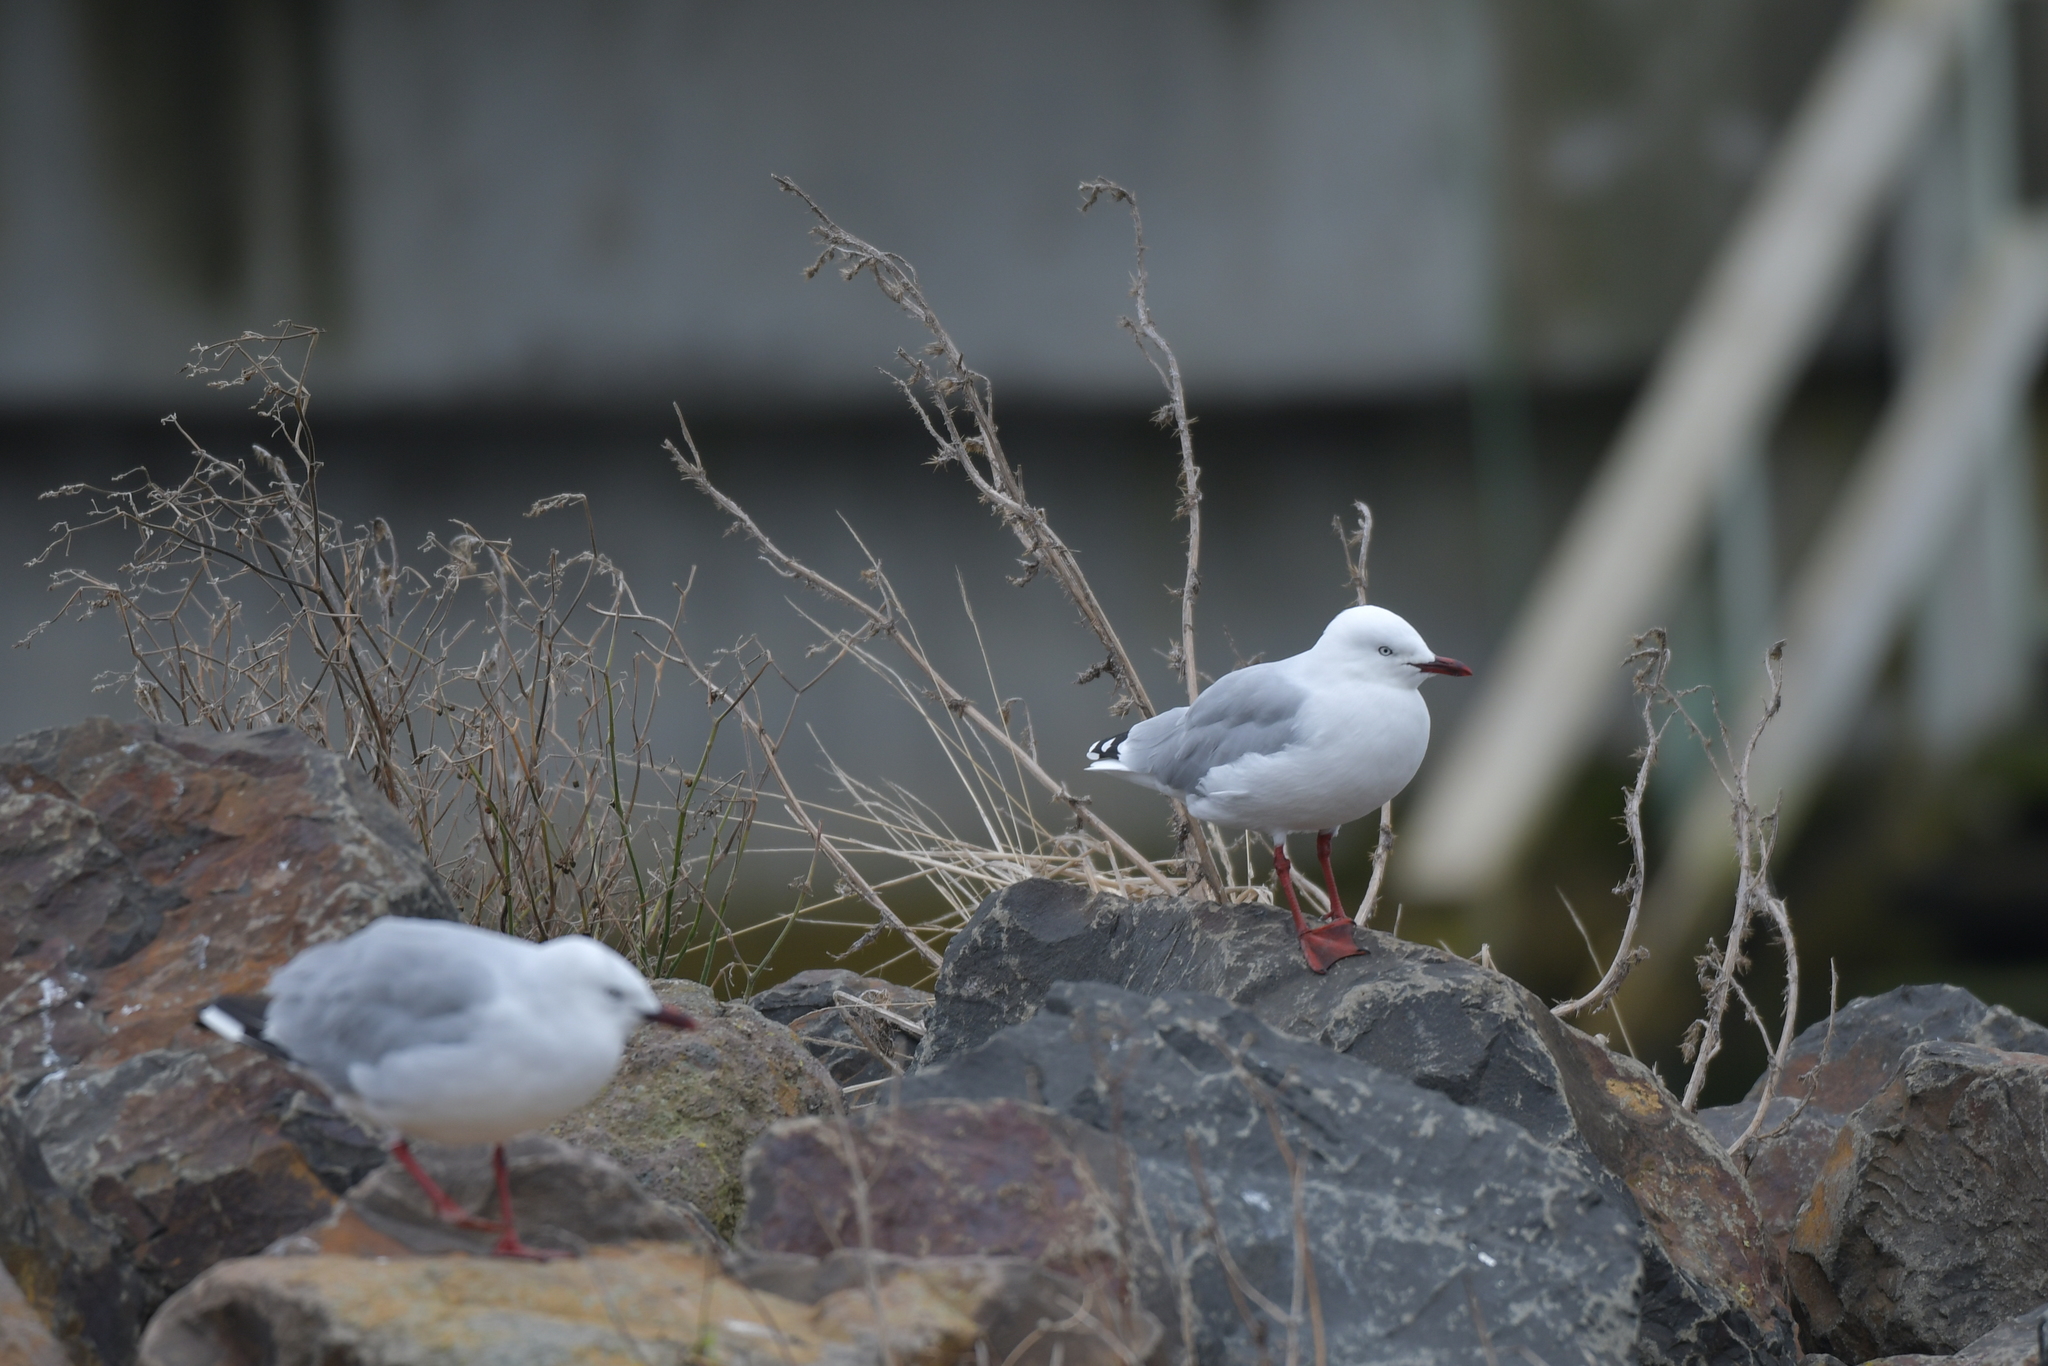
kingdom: Animalia
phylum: Chordata
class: Aves
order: Charadriiformes
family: Laridae
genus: Chroicocephalus
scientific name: Chroicocephalus novaehollandiae
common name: Silver gull
